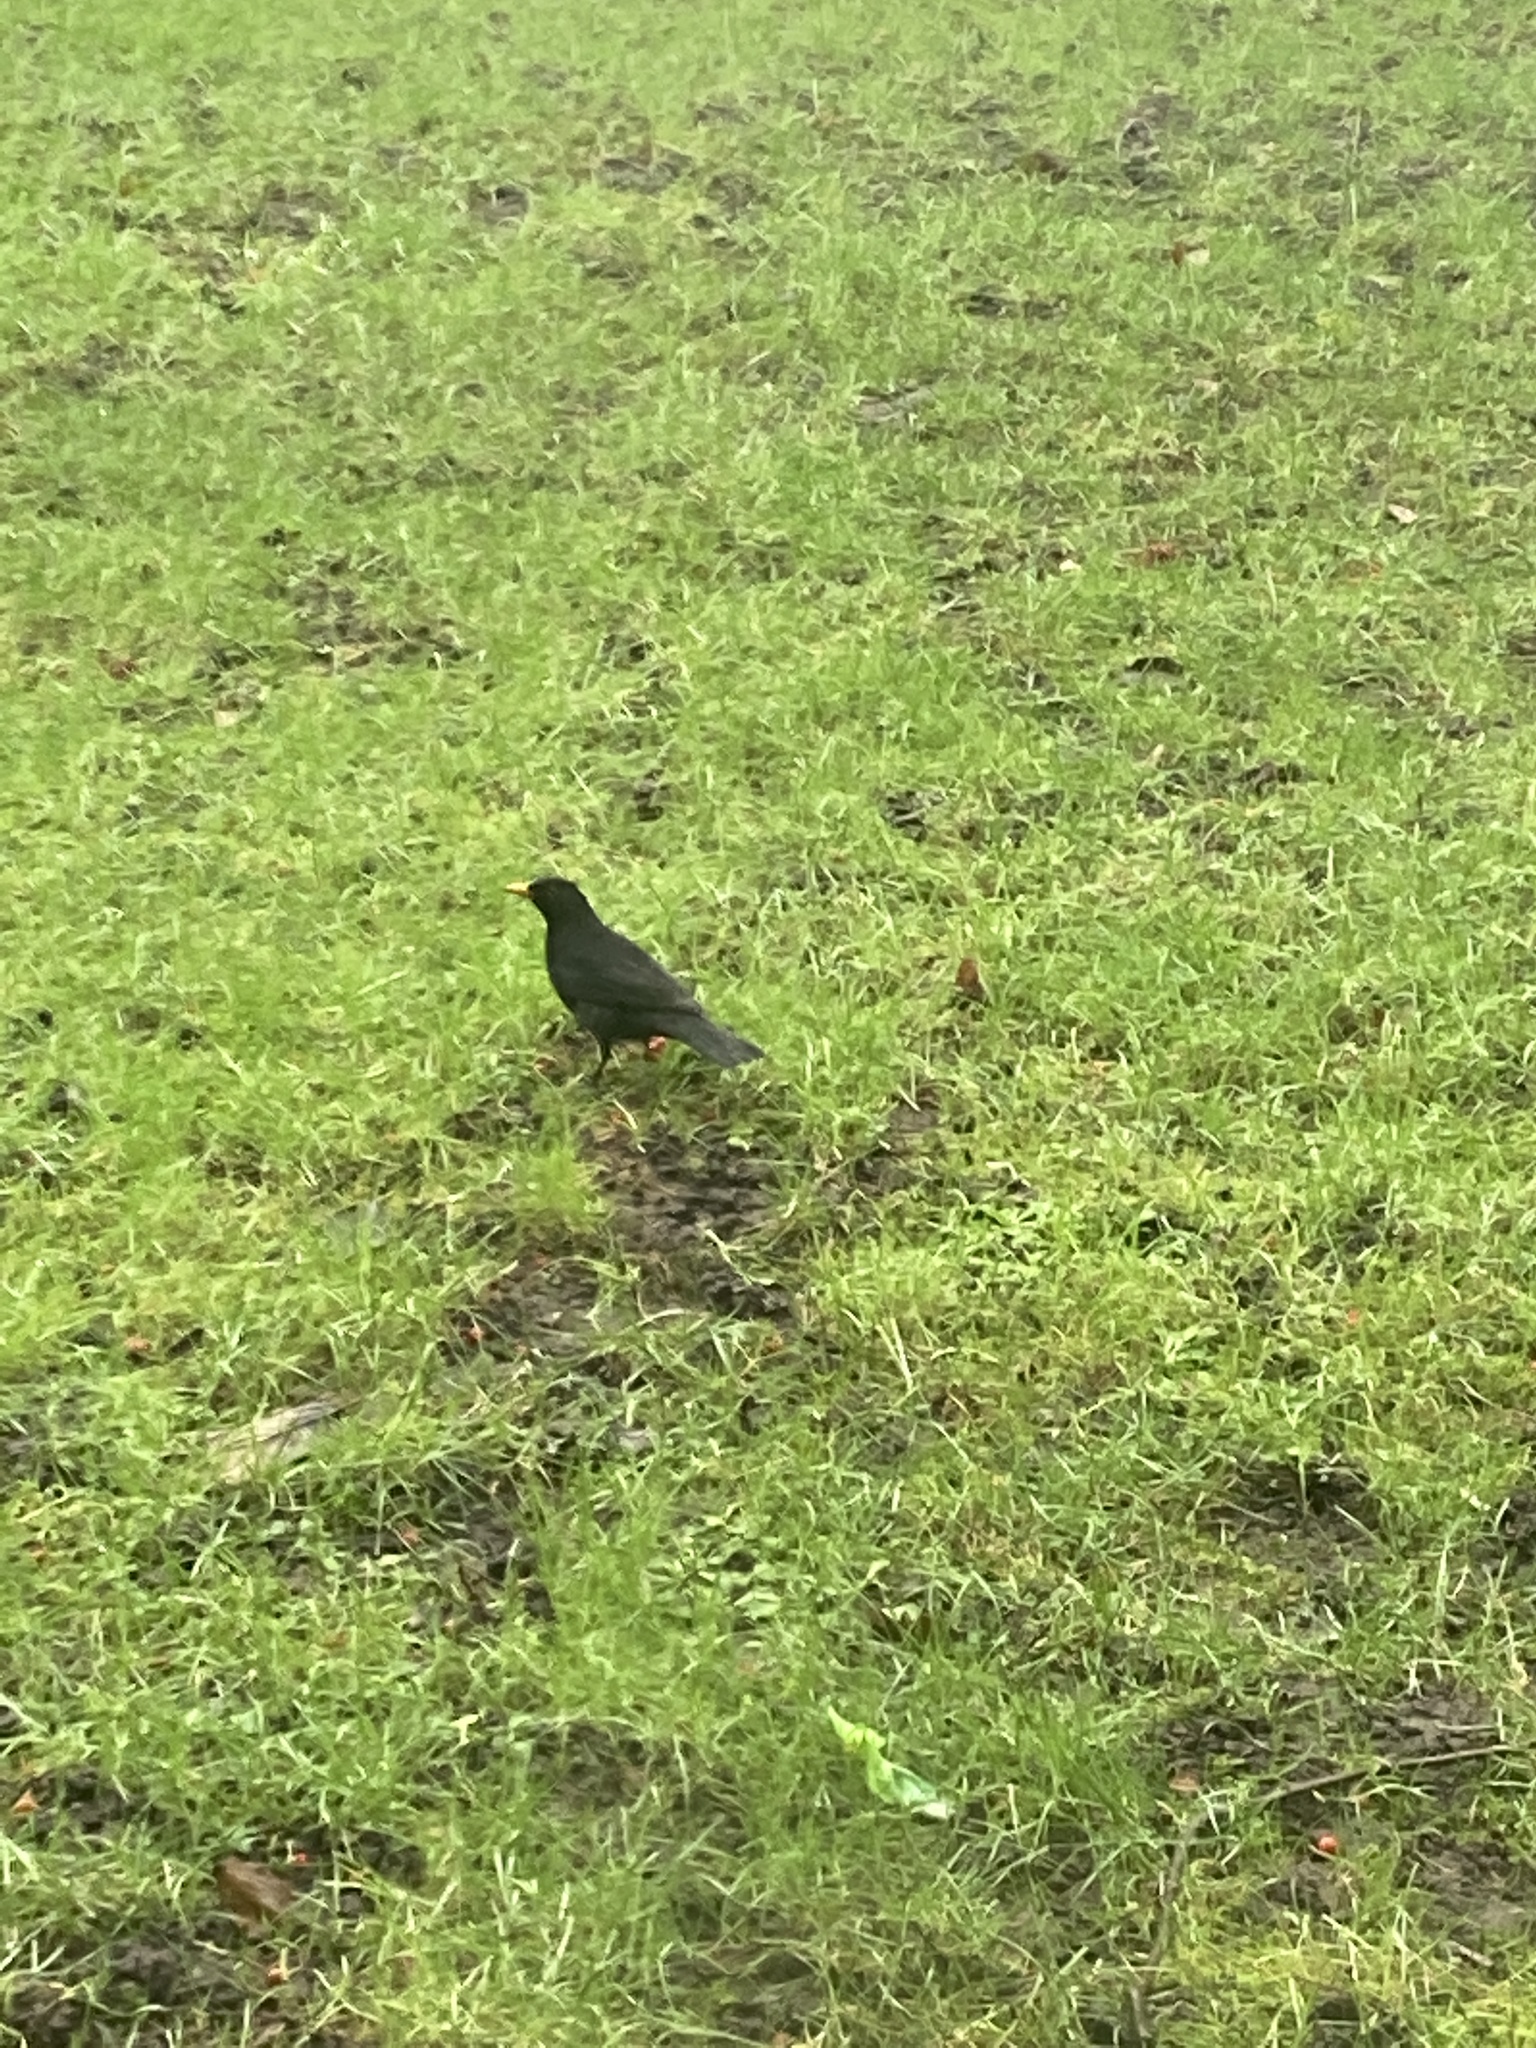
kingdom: Animalia
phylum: Chordata
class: Aves
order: Passeriformes
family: Turdidae
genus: Turdus
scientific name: Turdus merula
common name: Common blackbird
